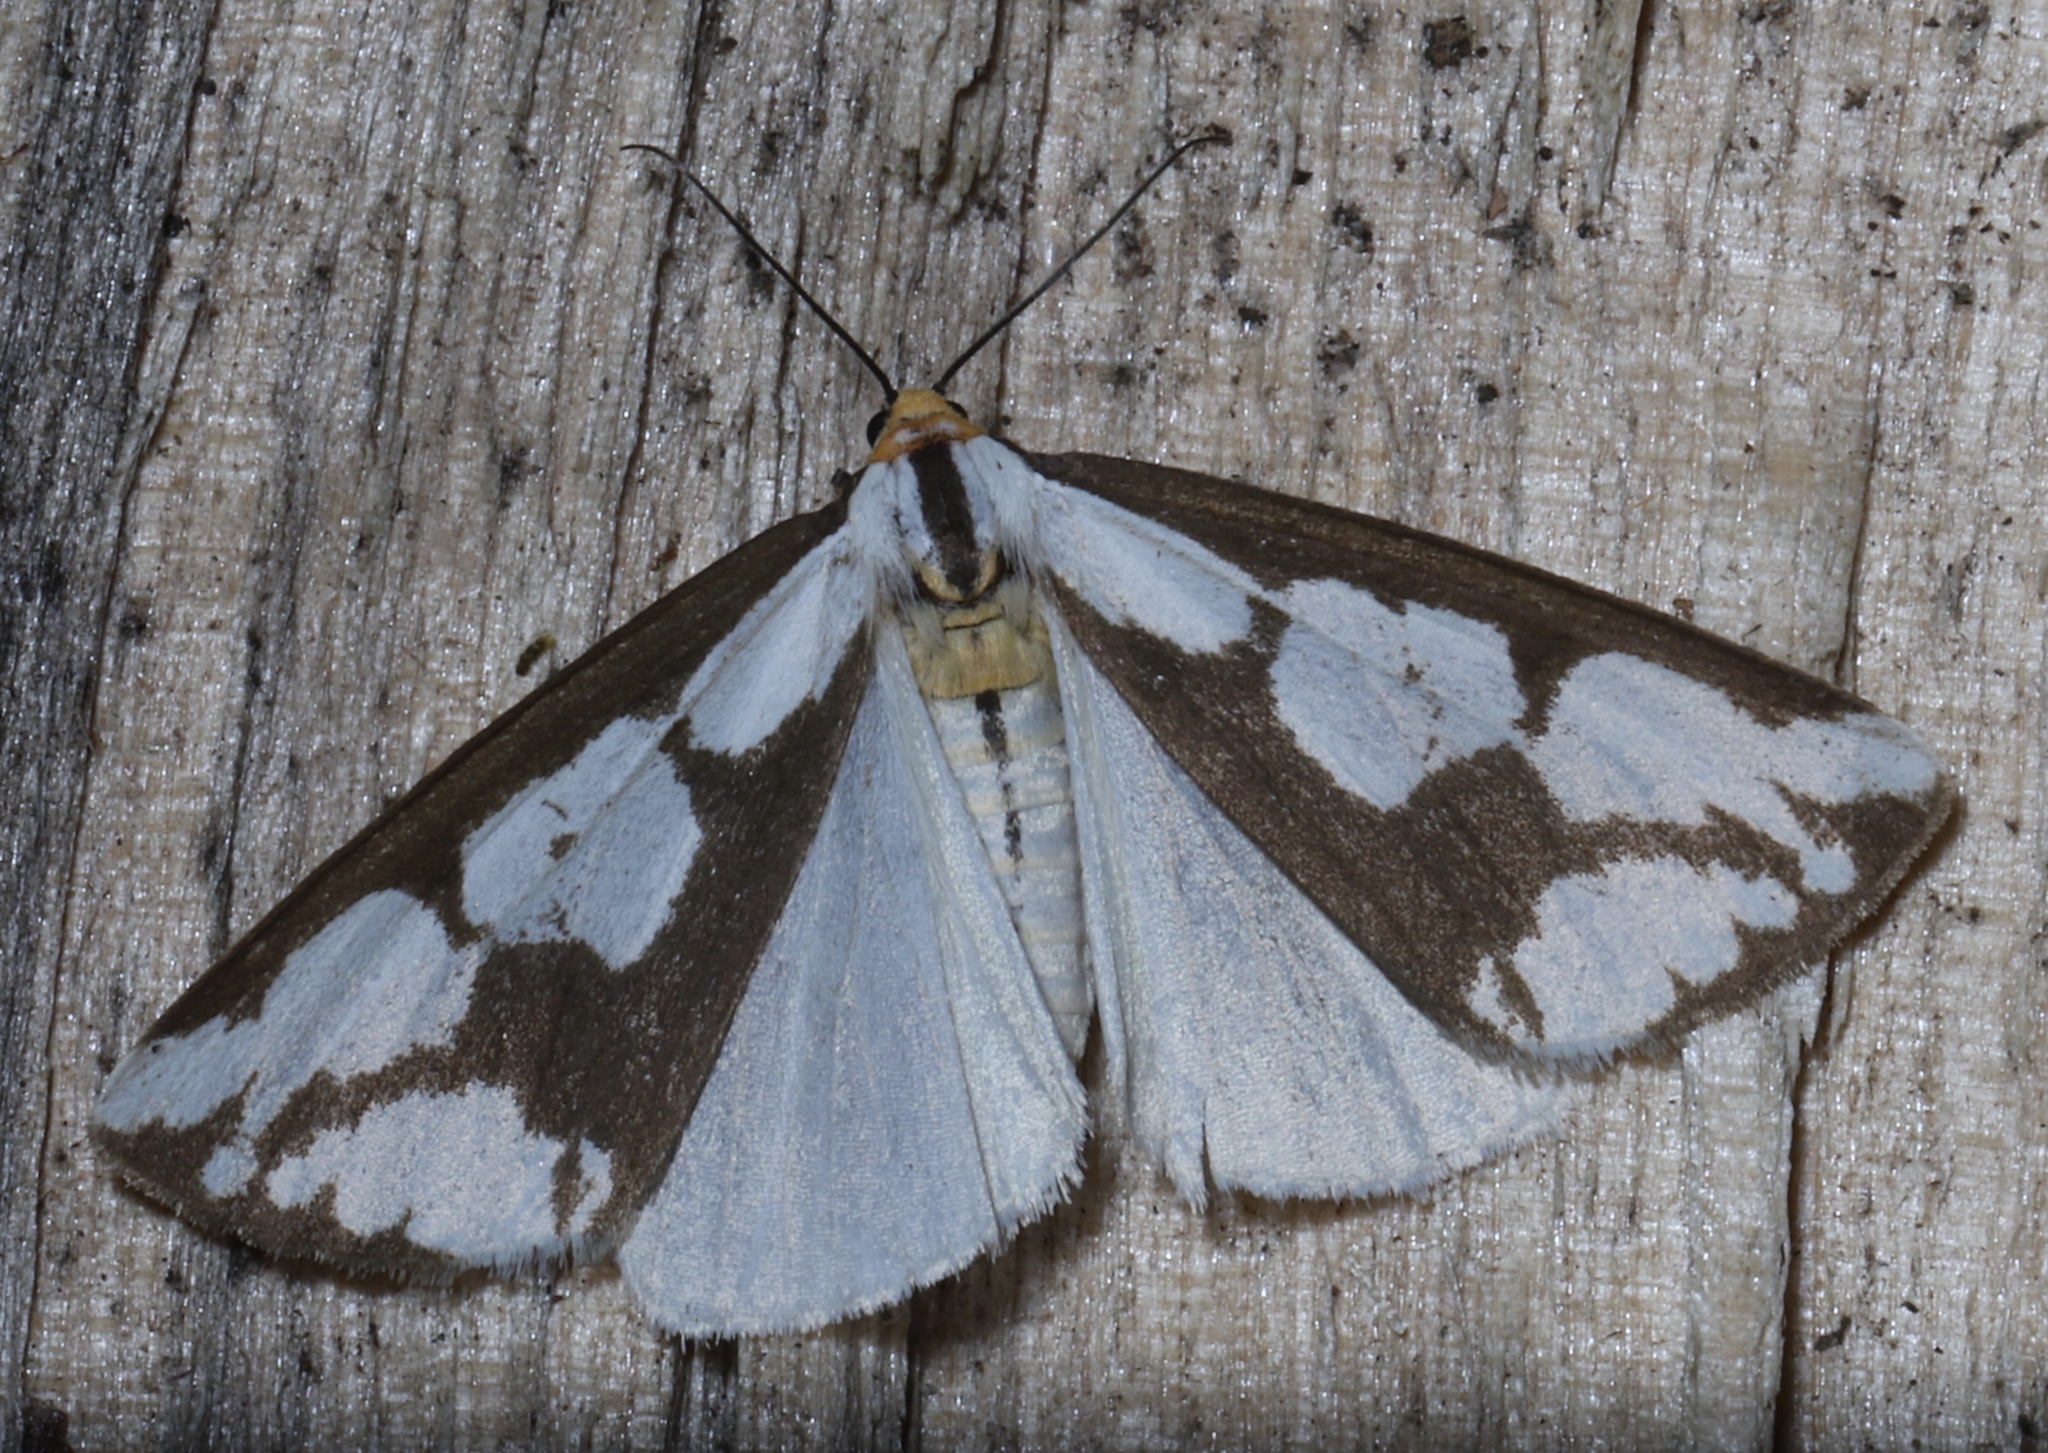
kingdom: Animalia
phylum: Arthropoda
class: Insecta
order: Lepidoptera
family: Erebidae
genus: Haploa
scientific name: Haploa lecontei
